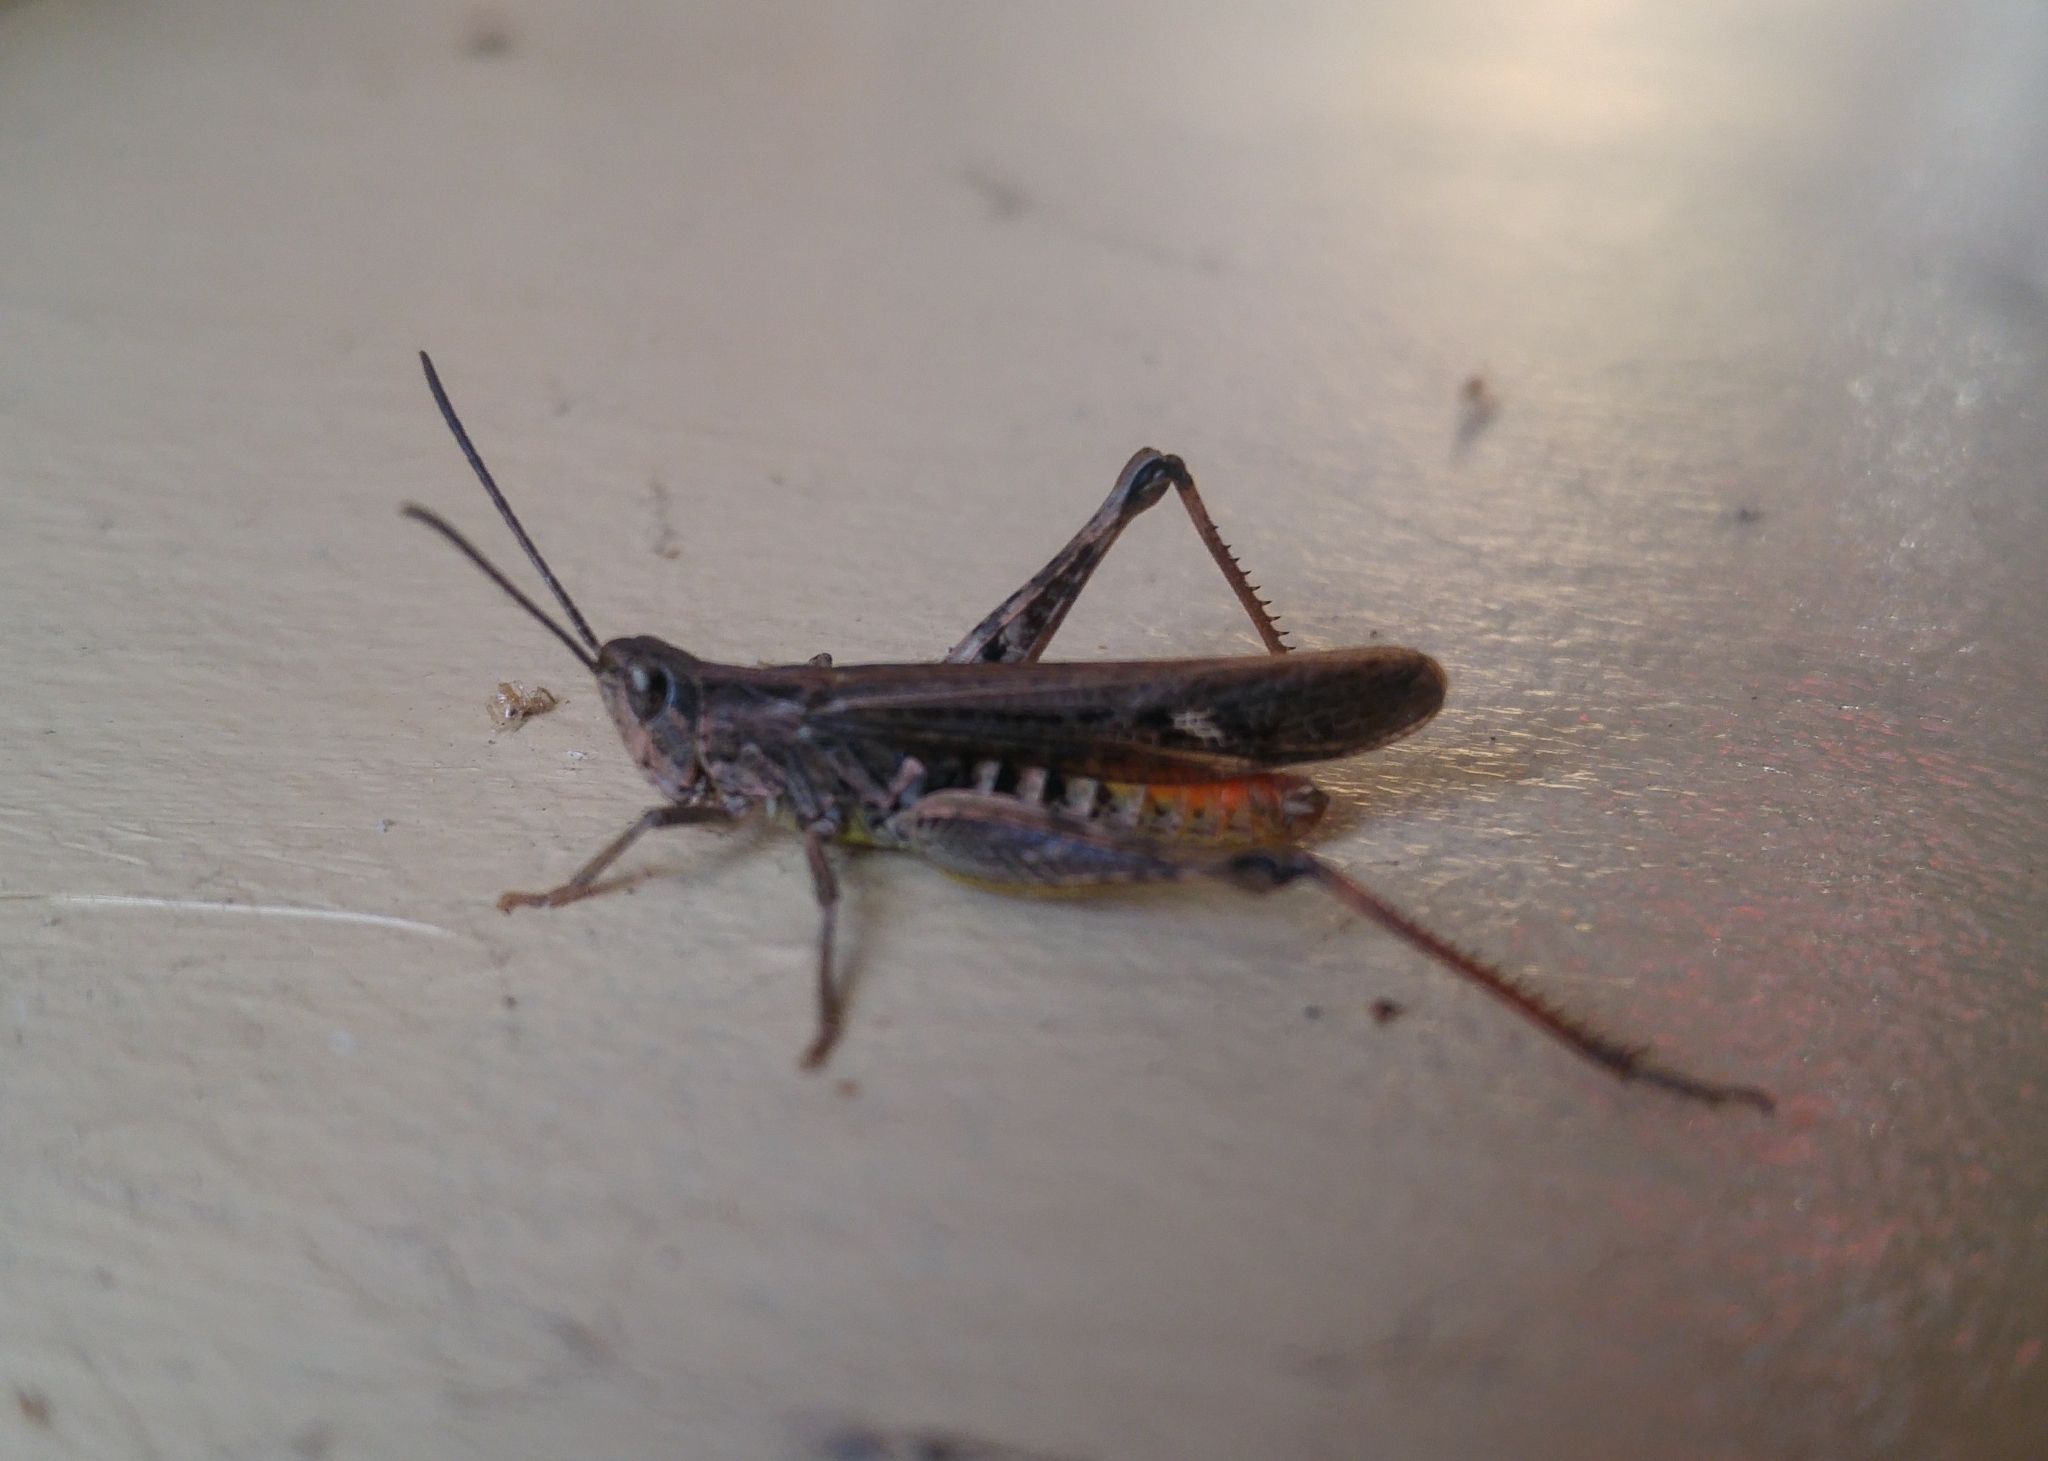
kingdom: Animalia
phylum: Arthropoda
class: Insecta
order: Orthoptera
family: Acrididae
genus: Chorthippus
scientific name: Chorthippus brunneus
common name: Field grasshopper
